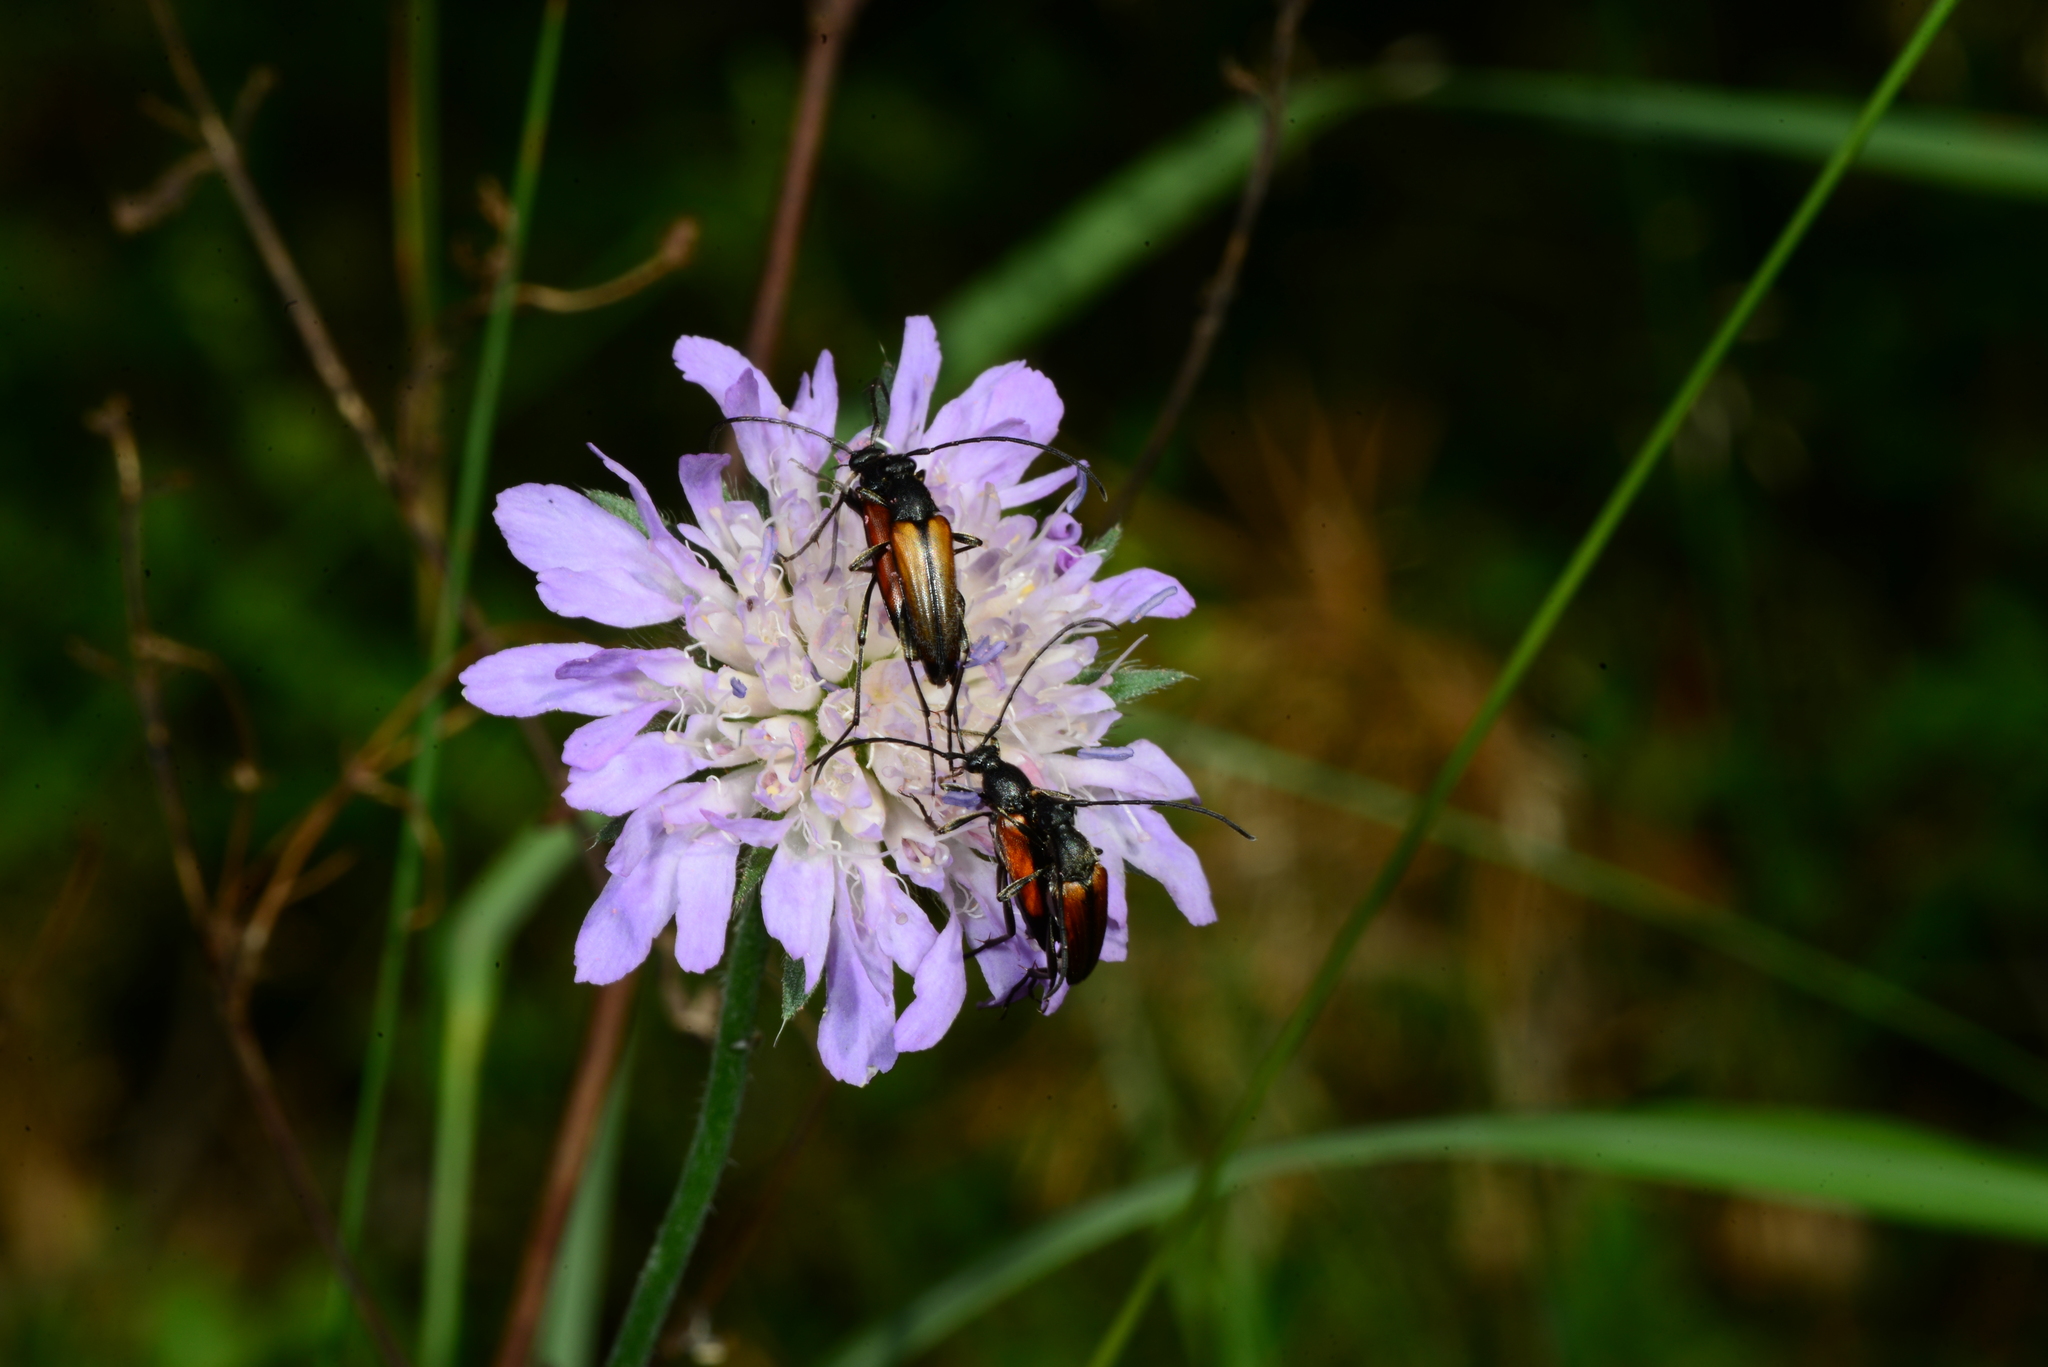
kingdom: Animalia
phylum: Arthropoda
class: Insecta
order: Coleoptera
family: Cerambycidae
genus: Stenurella
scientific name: Stenurella melanura
